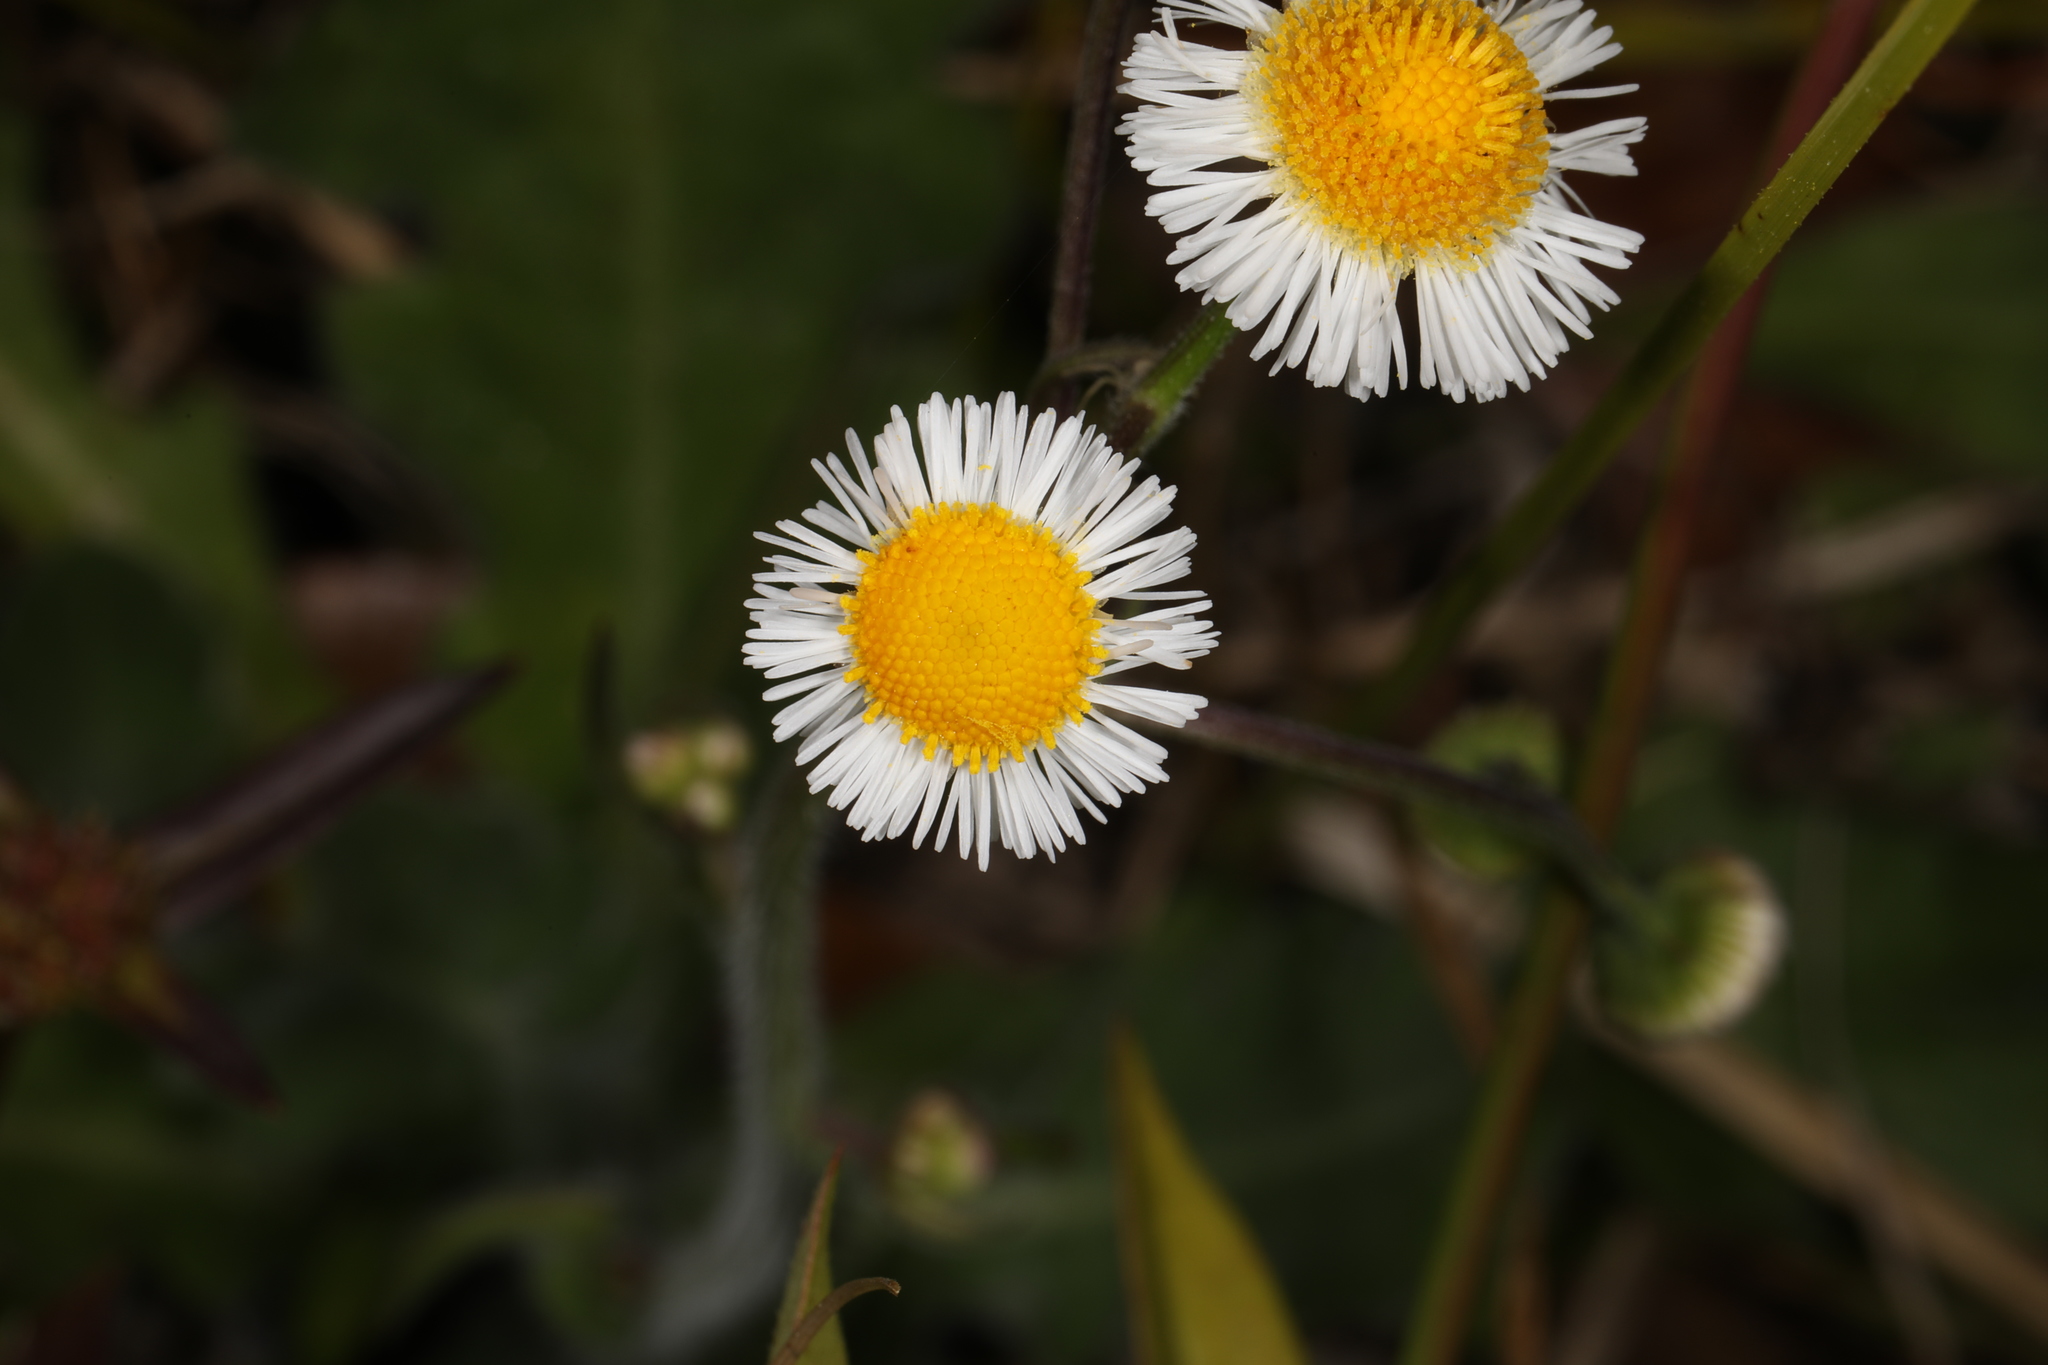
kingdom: Plantae
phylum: Tracheophyta
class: Magnoliopsida
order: Asterales
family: Asteraceae
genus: Erigeron
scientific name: Erigeron quercifolius
